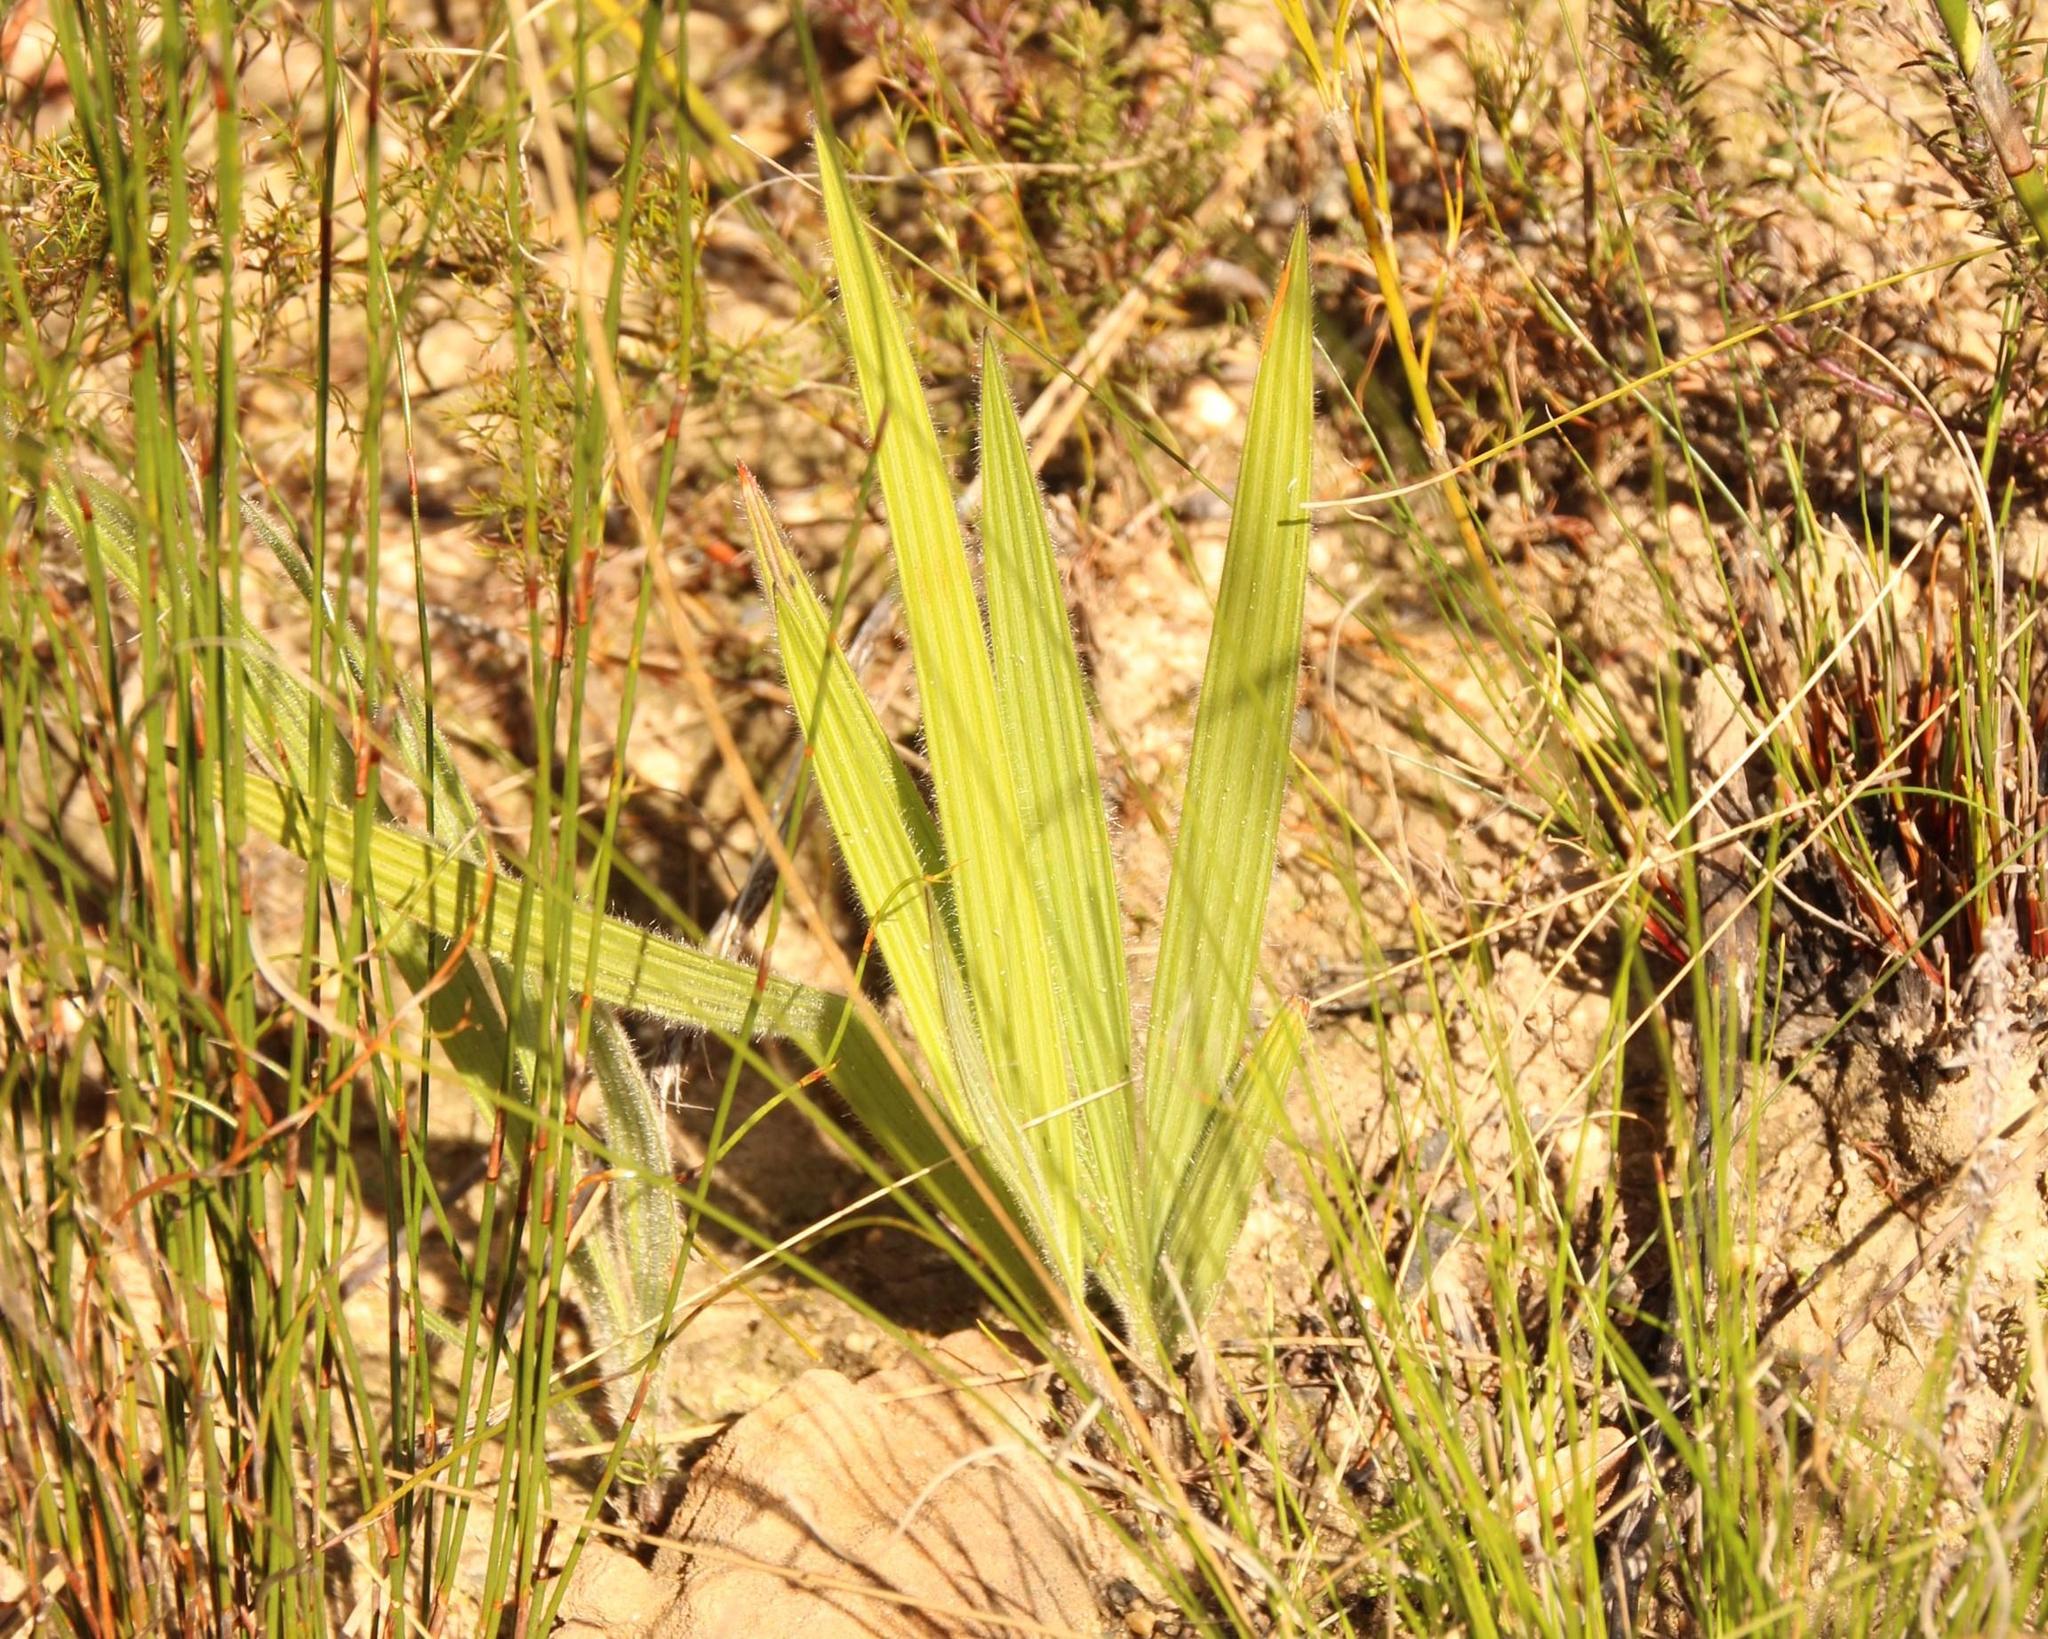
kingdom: Plantae
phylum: Tracheophyta
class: Liliopsida
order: Asparagales
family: Iridaceae
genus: Babiana
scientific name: Babiana villosula
